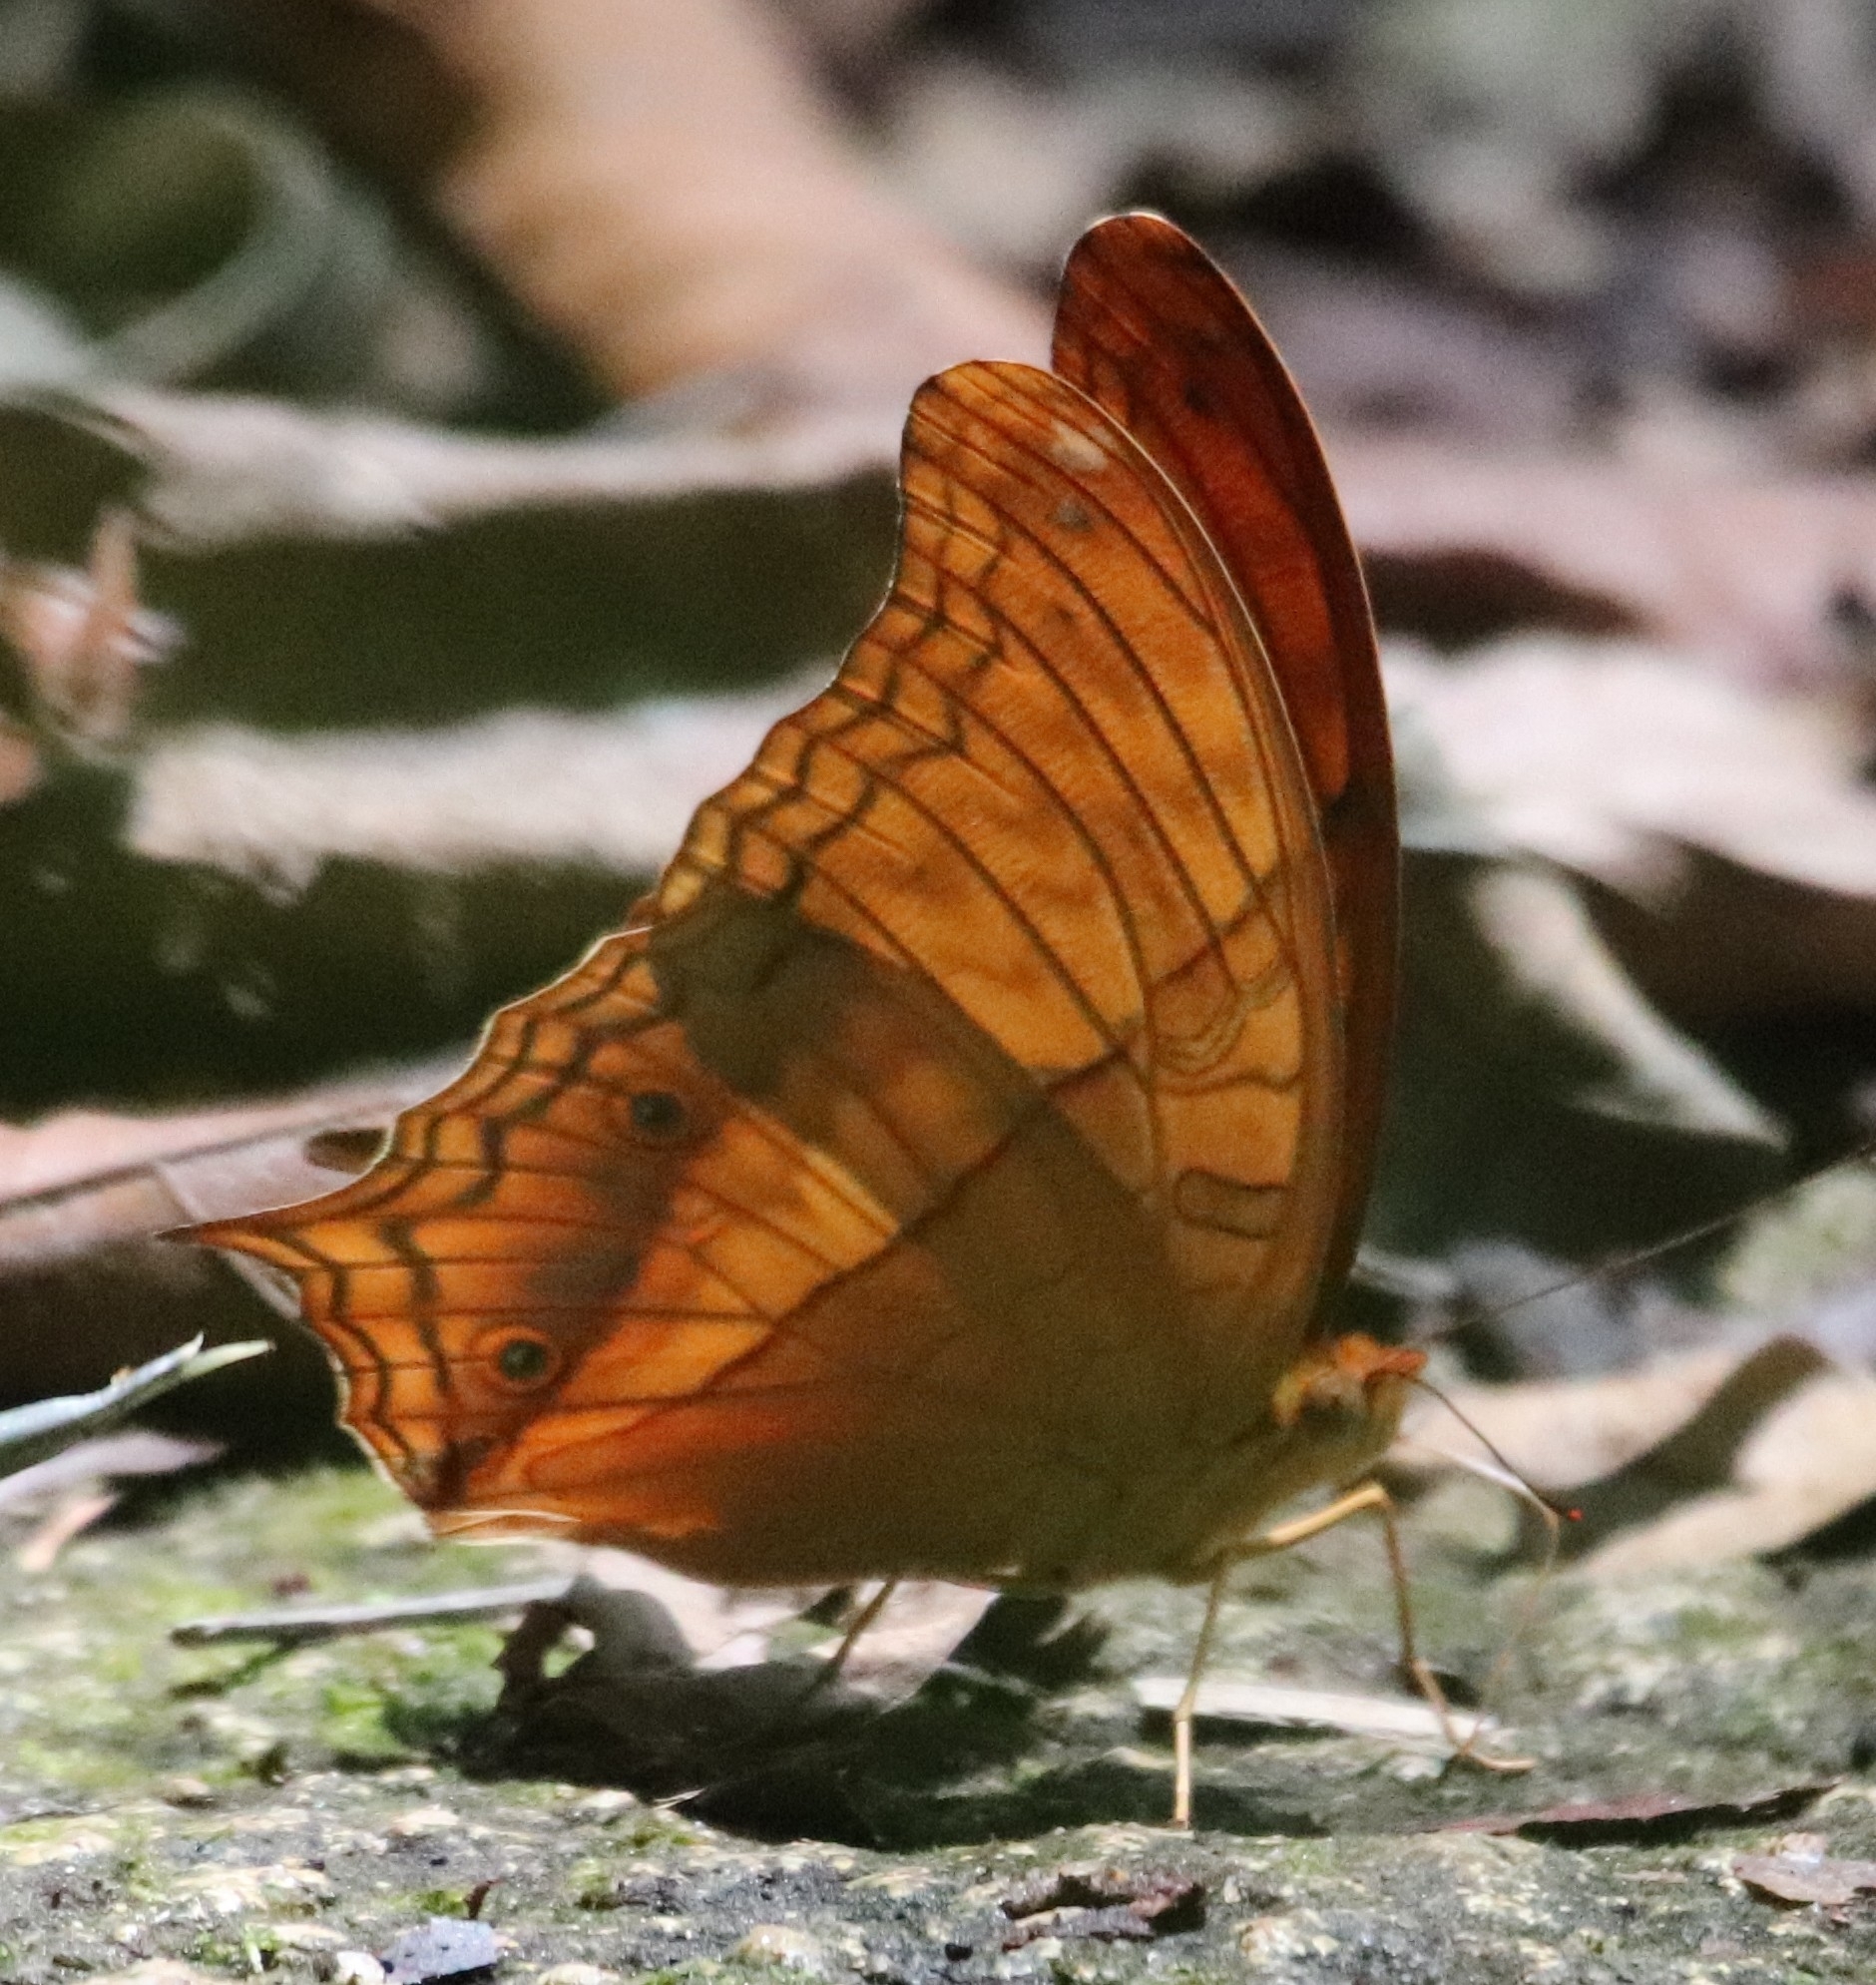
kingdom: Animalia
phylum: Arthropoda
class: Insecta
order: Lepidoptera
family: Nymphalidae
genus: Vindula
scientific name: Vindula deione
